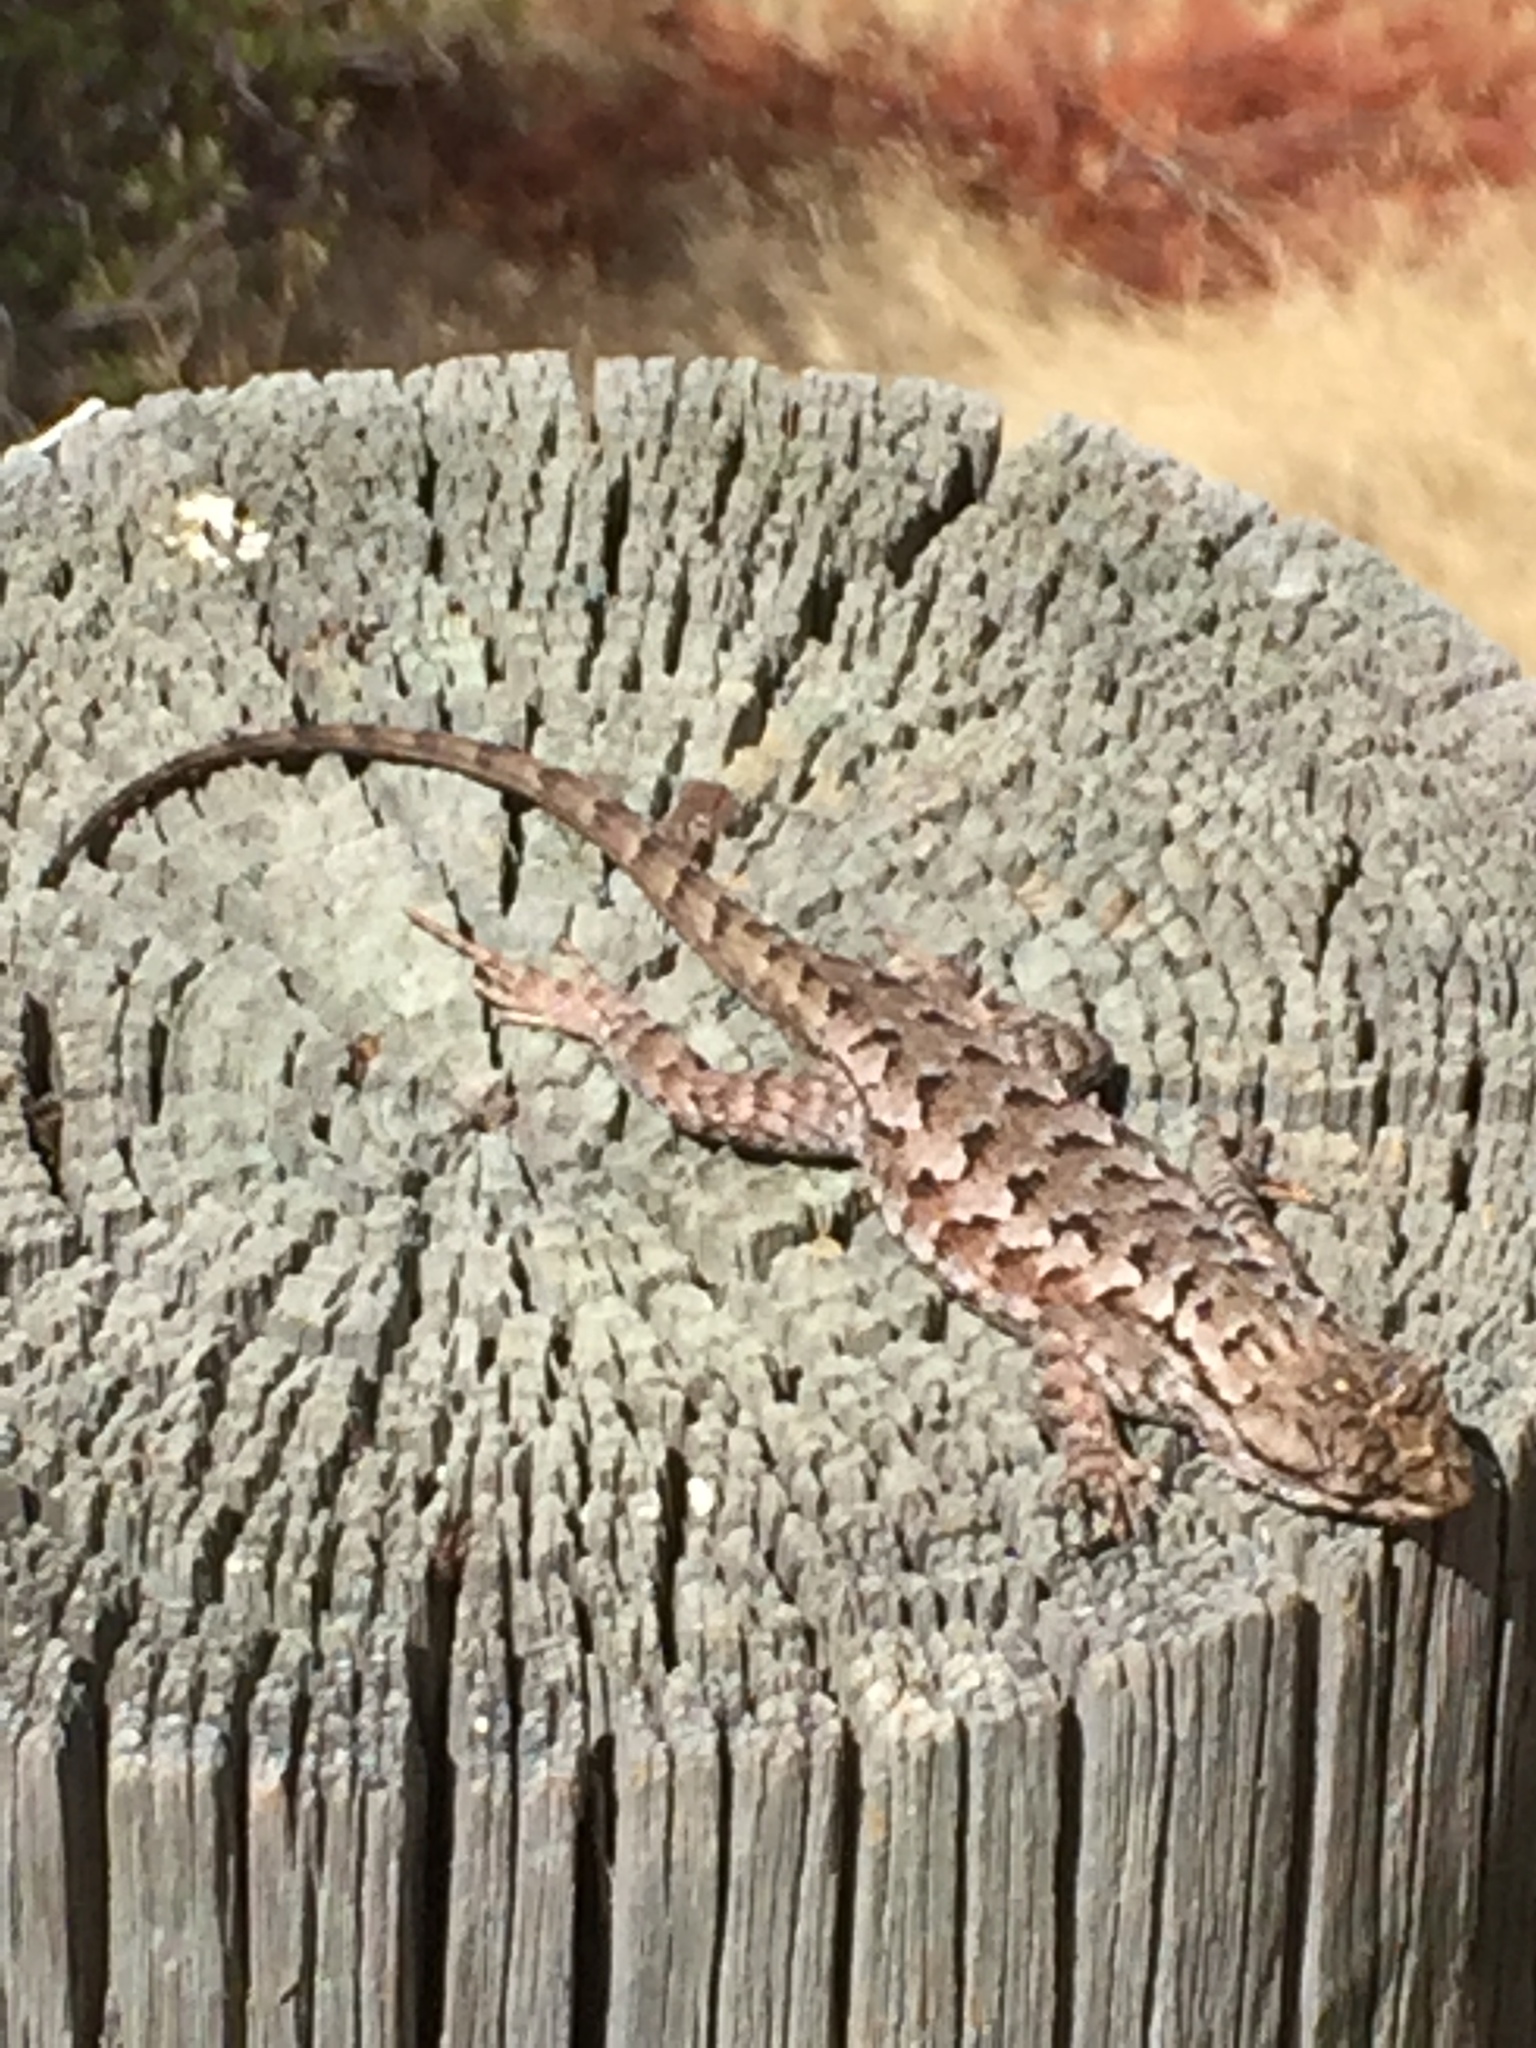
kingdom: Animalia
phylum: Chordata
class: Squamata
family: Phrynosomatidae
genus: Sceloporus
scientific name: Sceloporus occidentalis
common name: Western fence lizard
